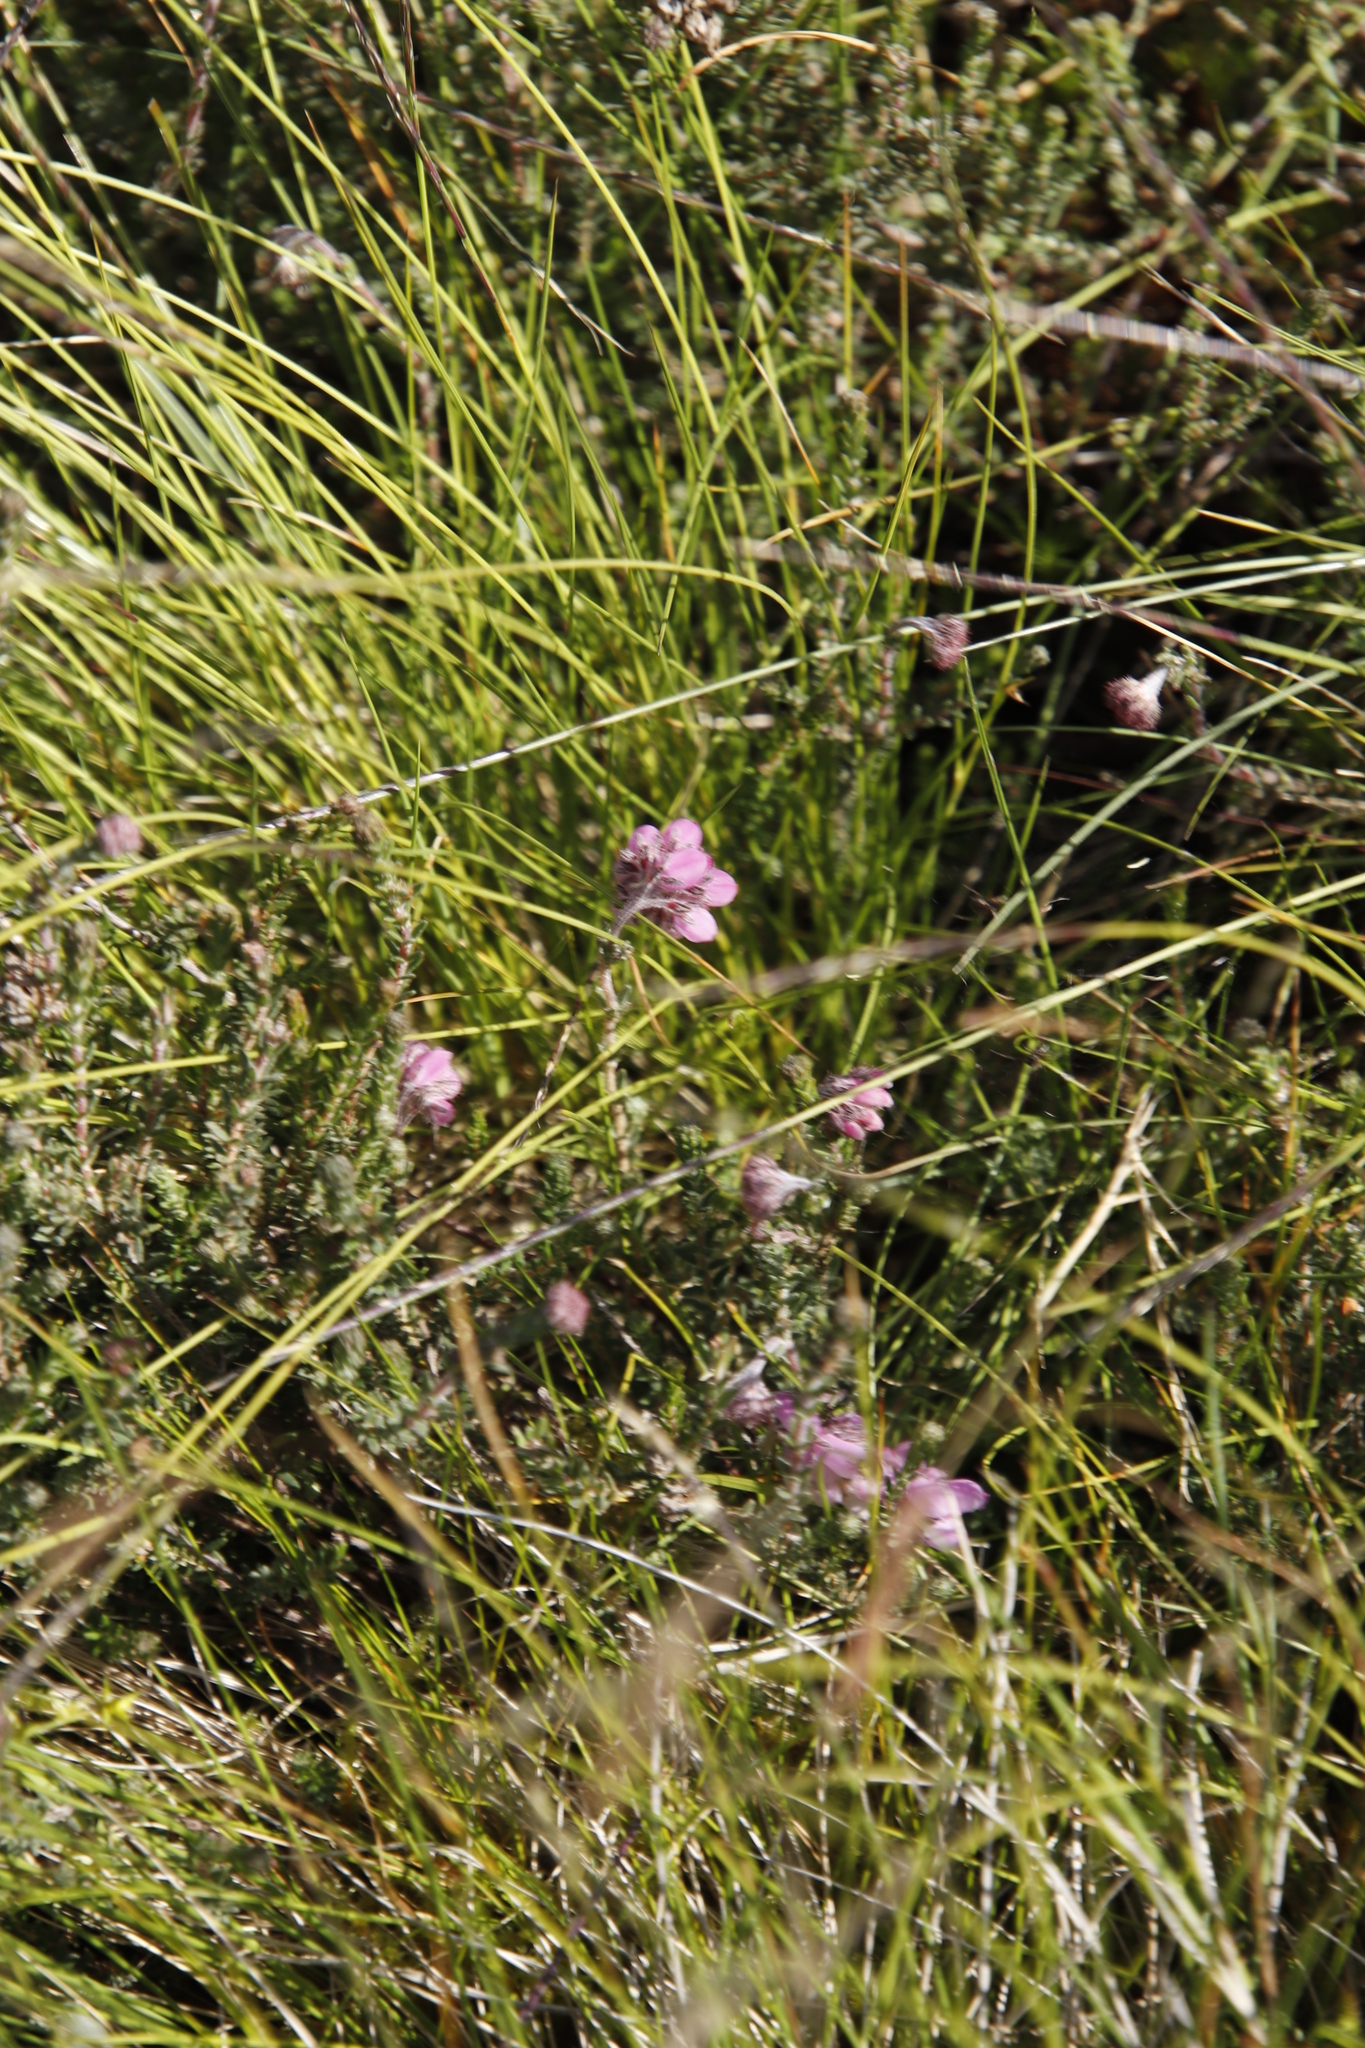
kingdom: Plantae
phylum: Tracheophyta
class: Magnoliopsida
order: Ericales
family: Ericaceae
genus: Erica
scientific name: Erica tetralix
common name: Cross-leaved heath
